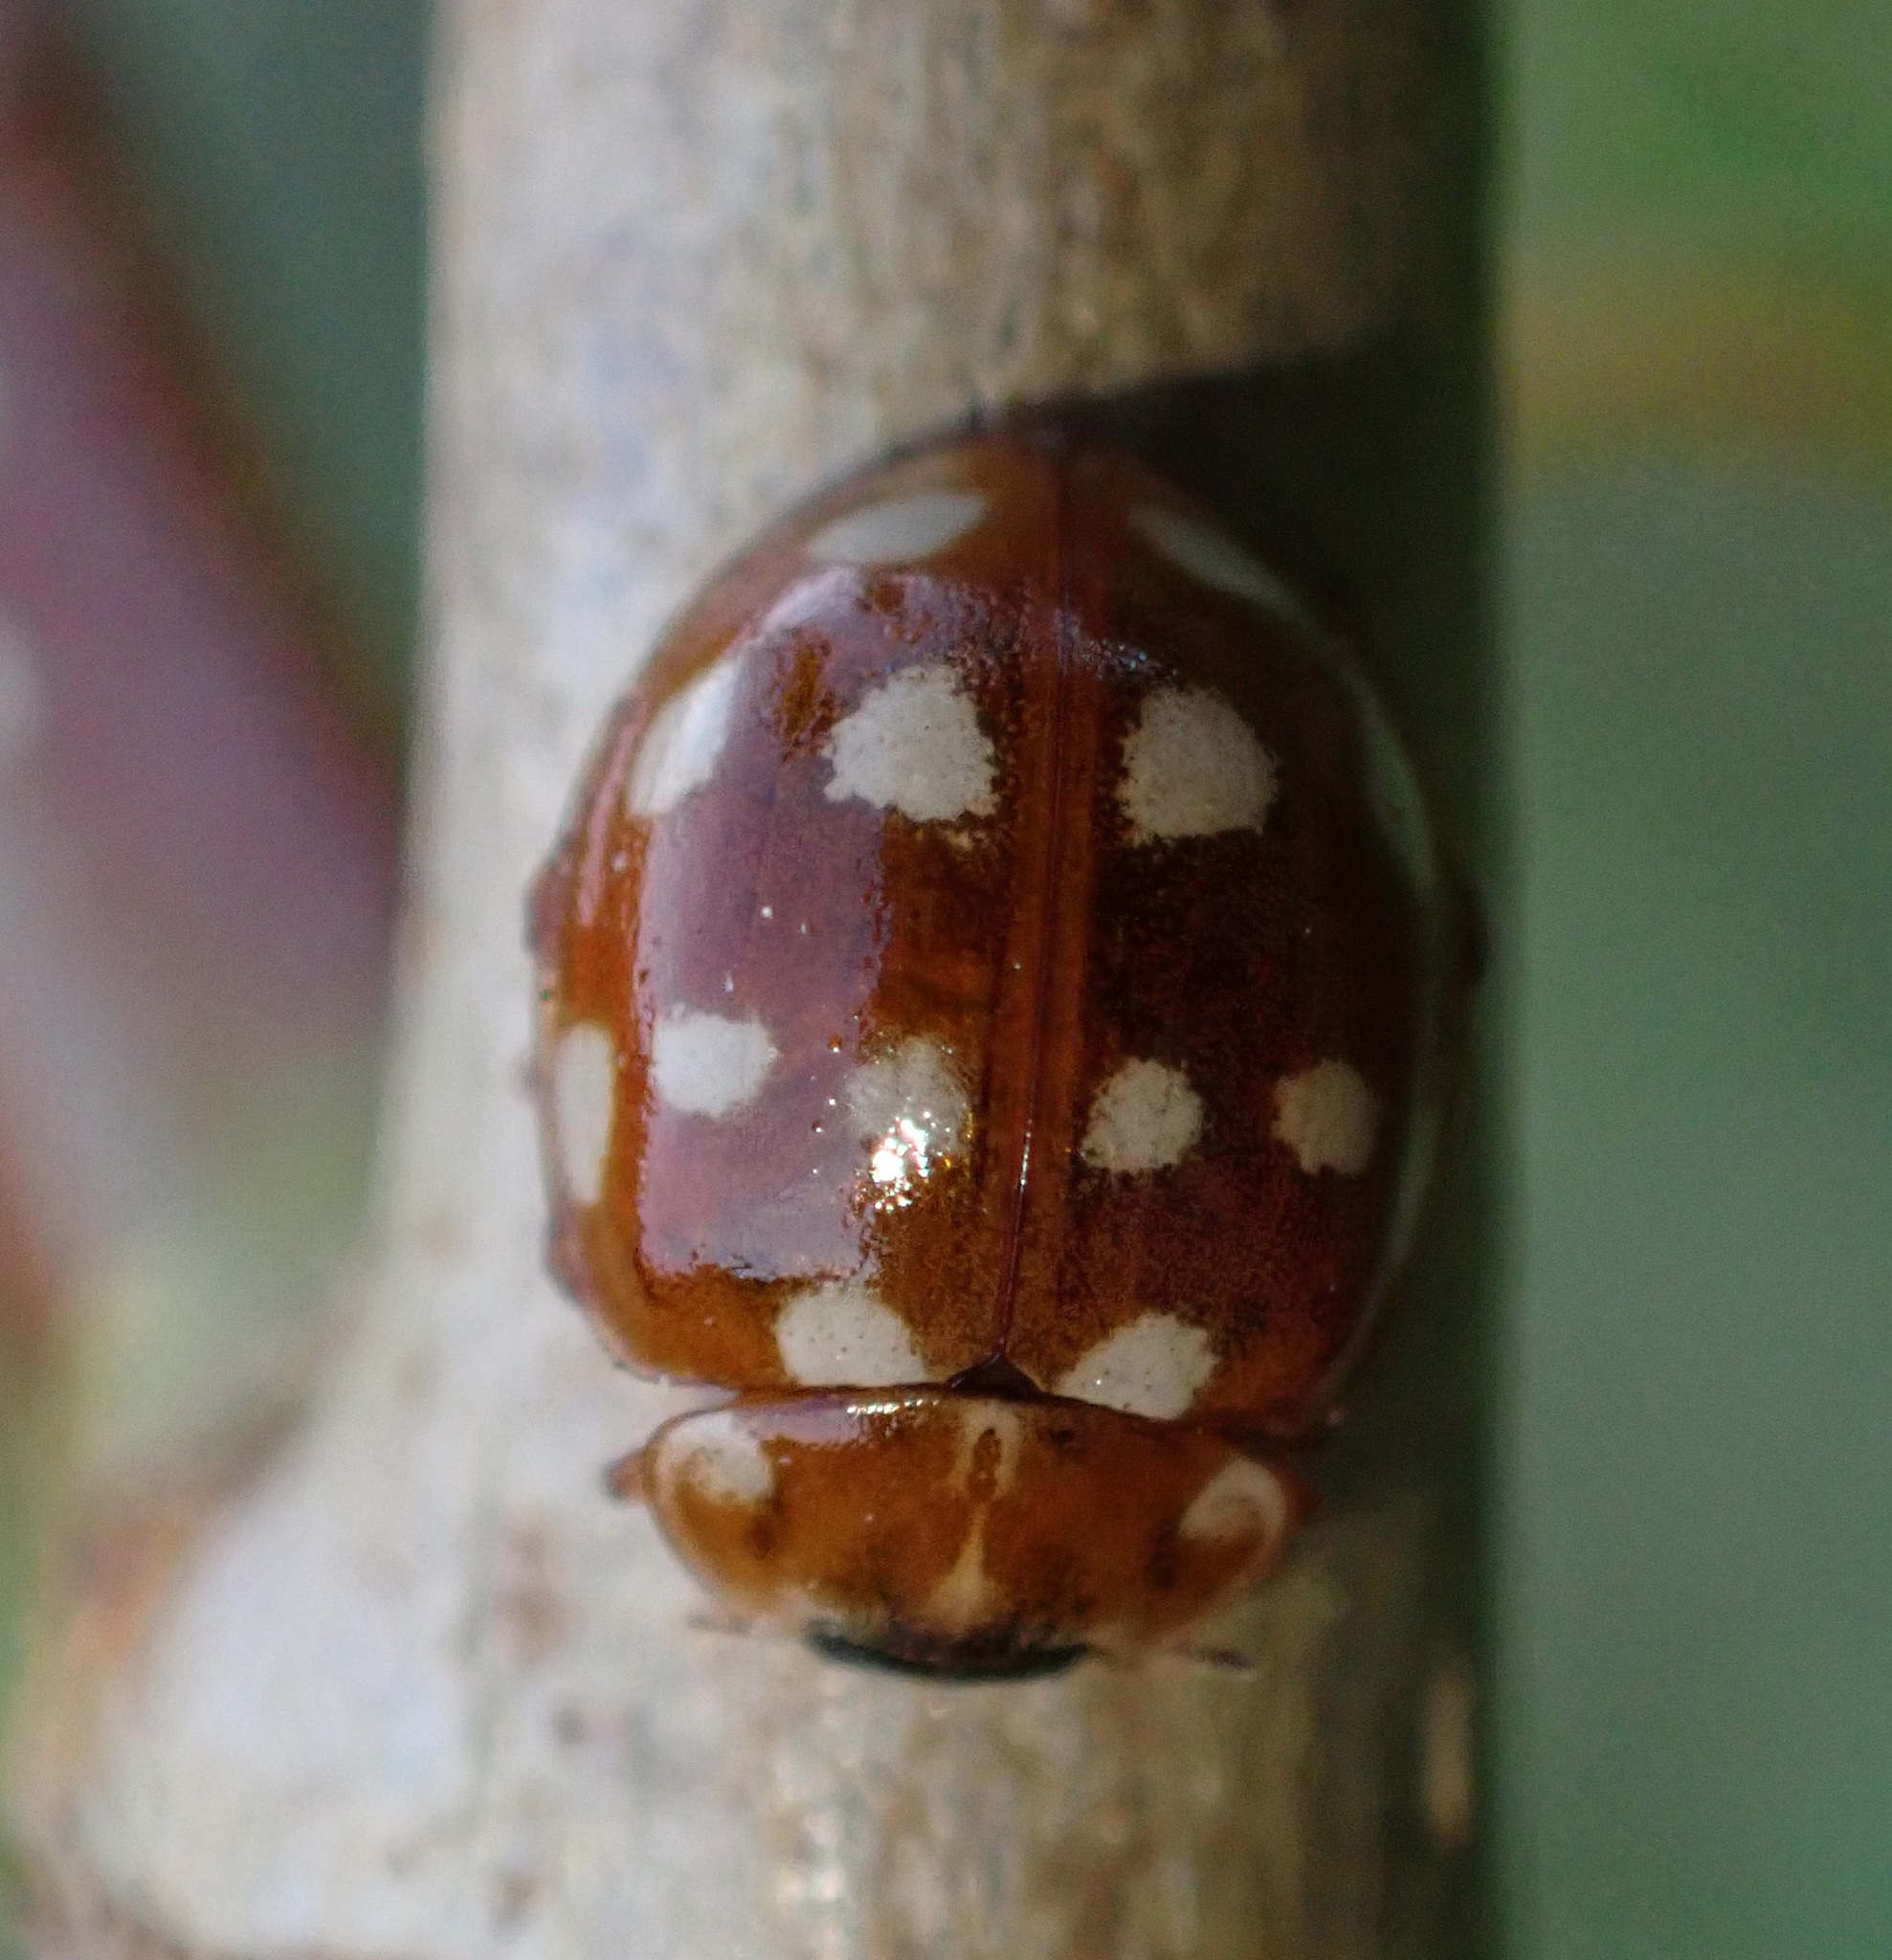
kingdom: Animalia
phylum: Arthropoda
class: Insecta
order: Coleoptera
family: Coccinellidae
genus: Calvia
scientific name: Calvia quatuordecimguttata
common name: Cream-spot ladybird
